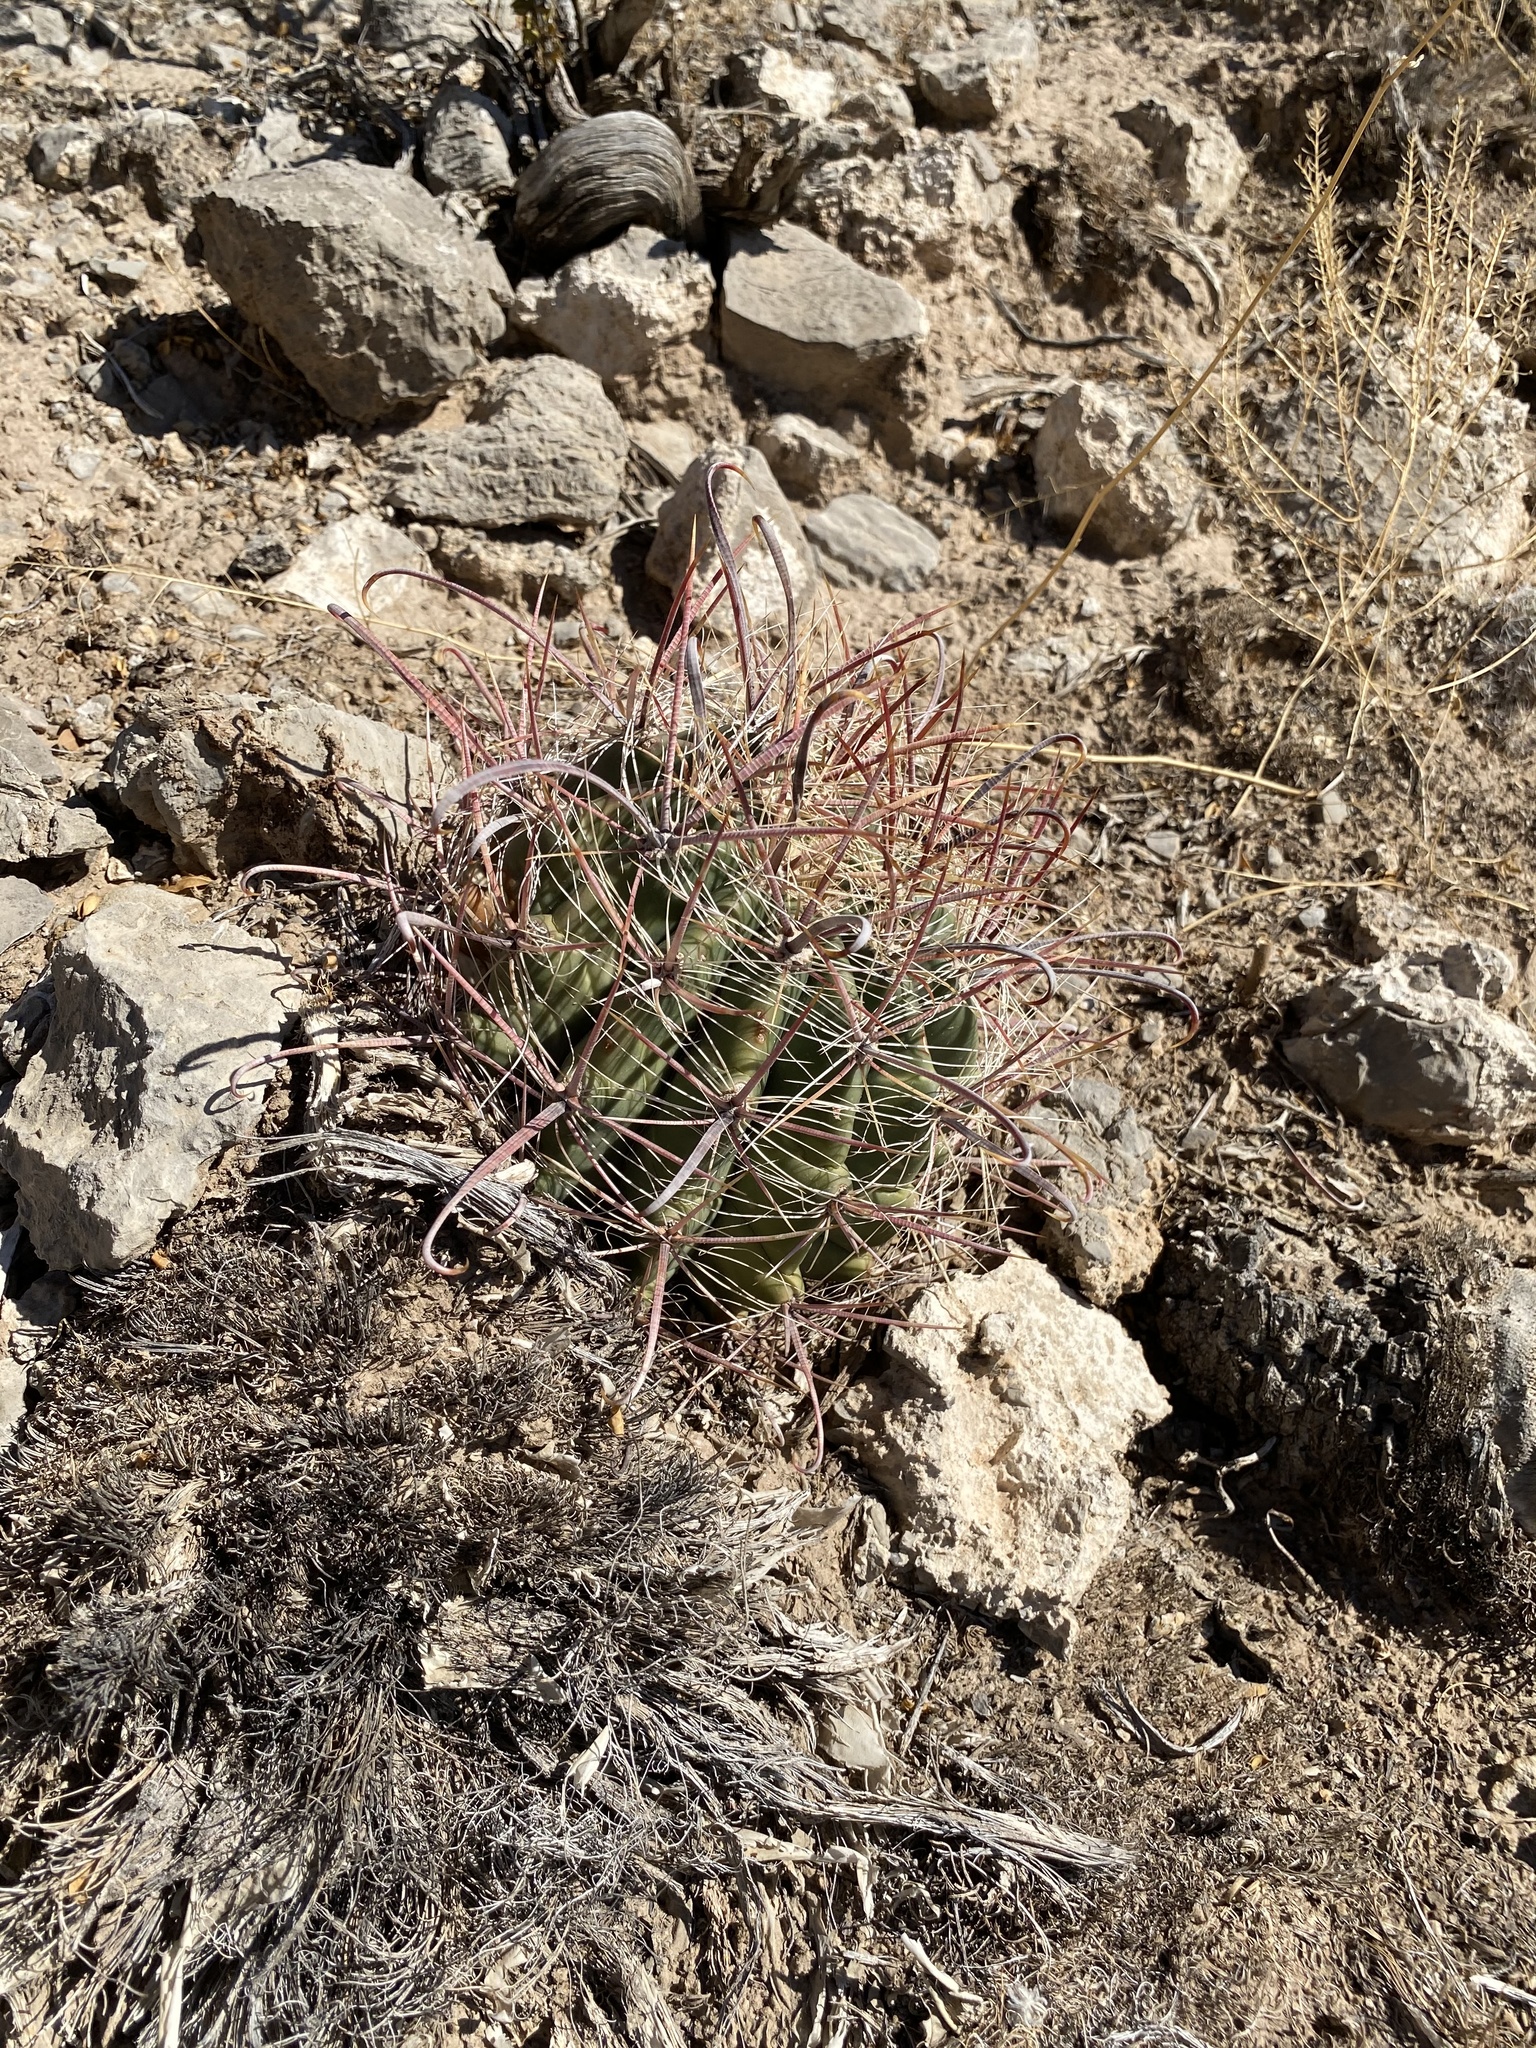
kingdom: Plantae
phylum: Tracheophyta
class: Magnoliopsida
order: Caryophyllales
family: Cactaceae
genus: Ferocactus
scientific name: Ferocactus wislizeni
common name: Candy barrel cactus
